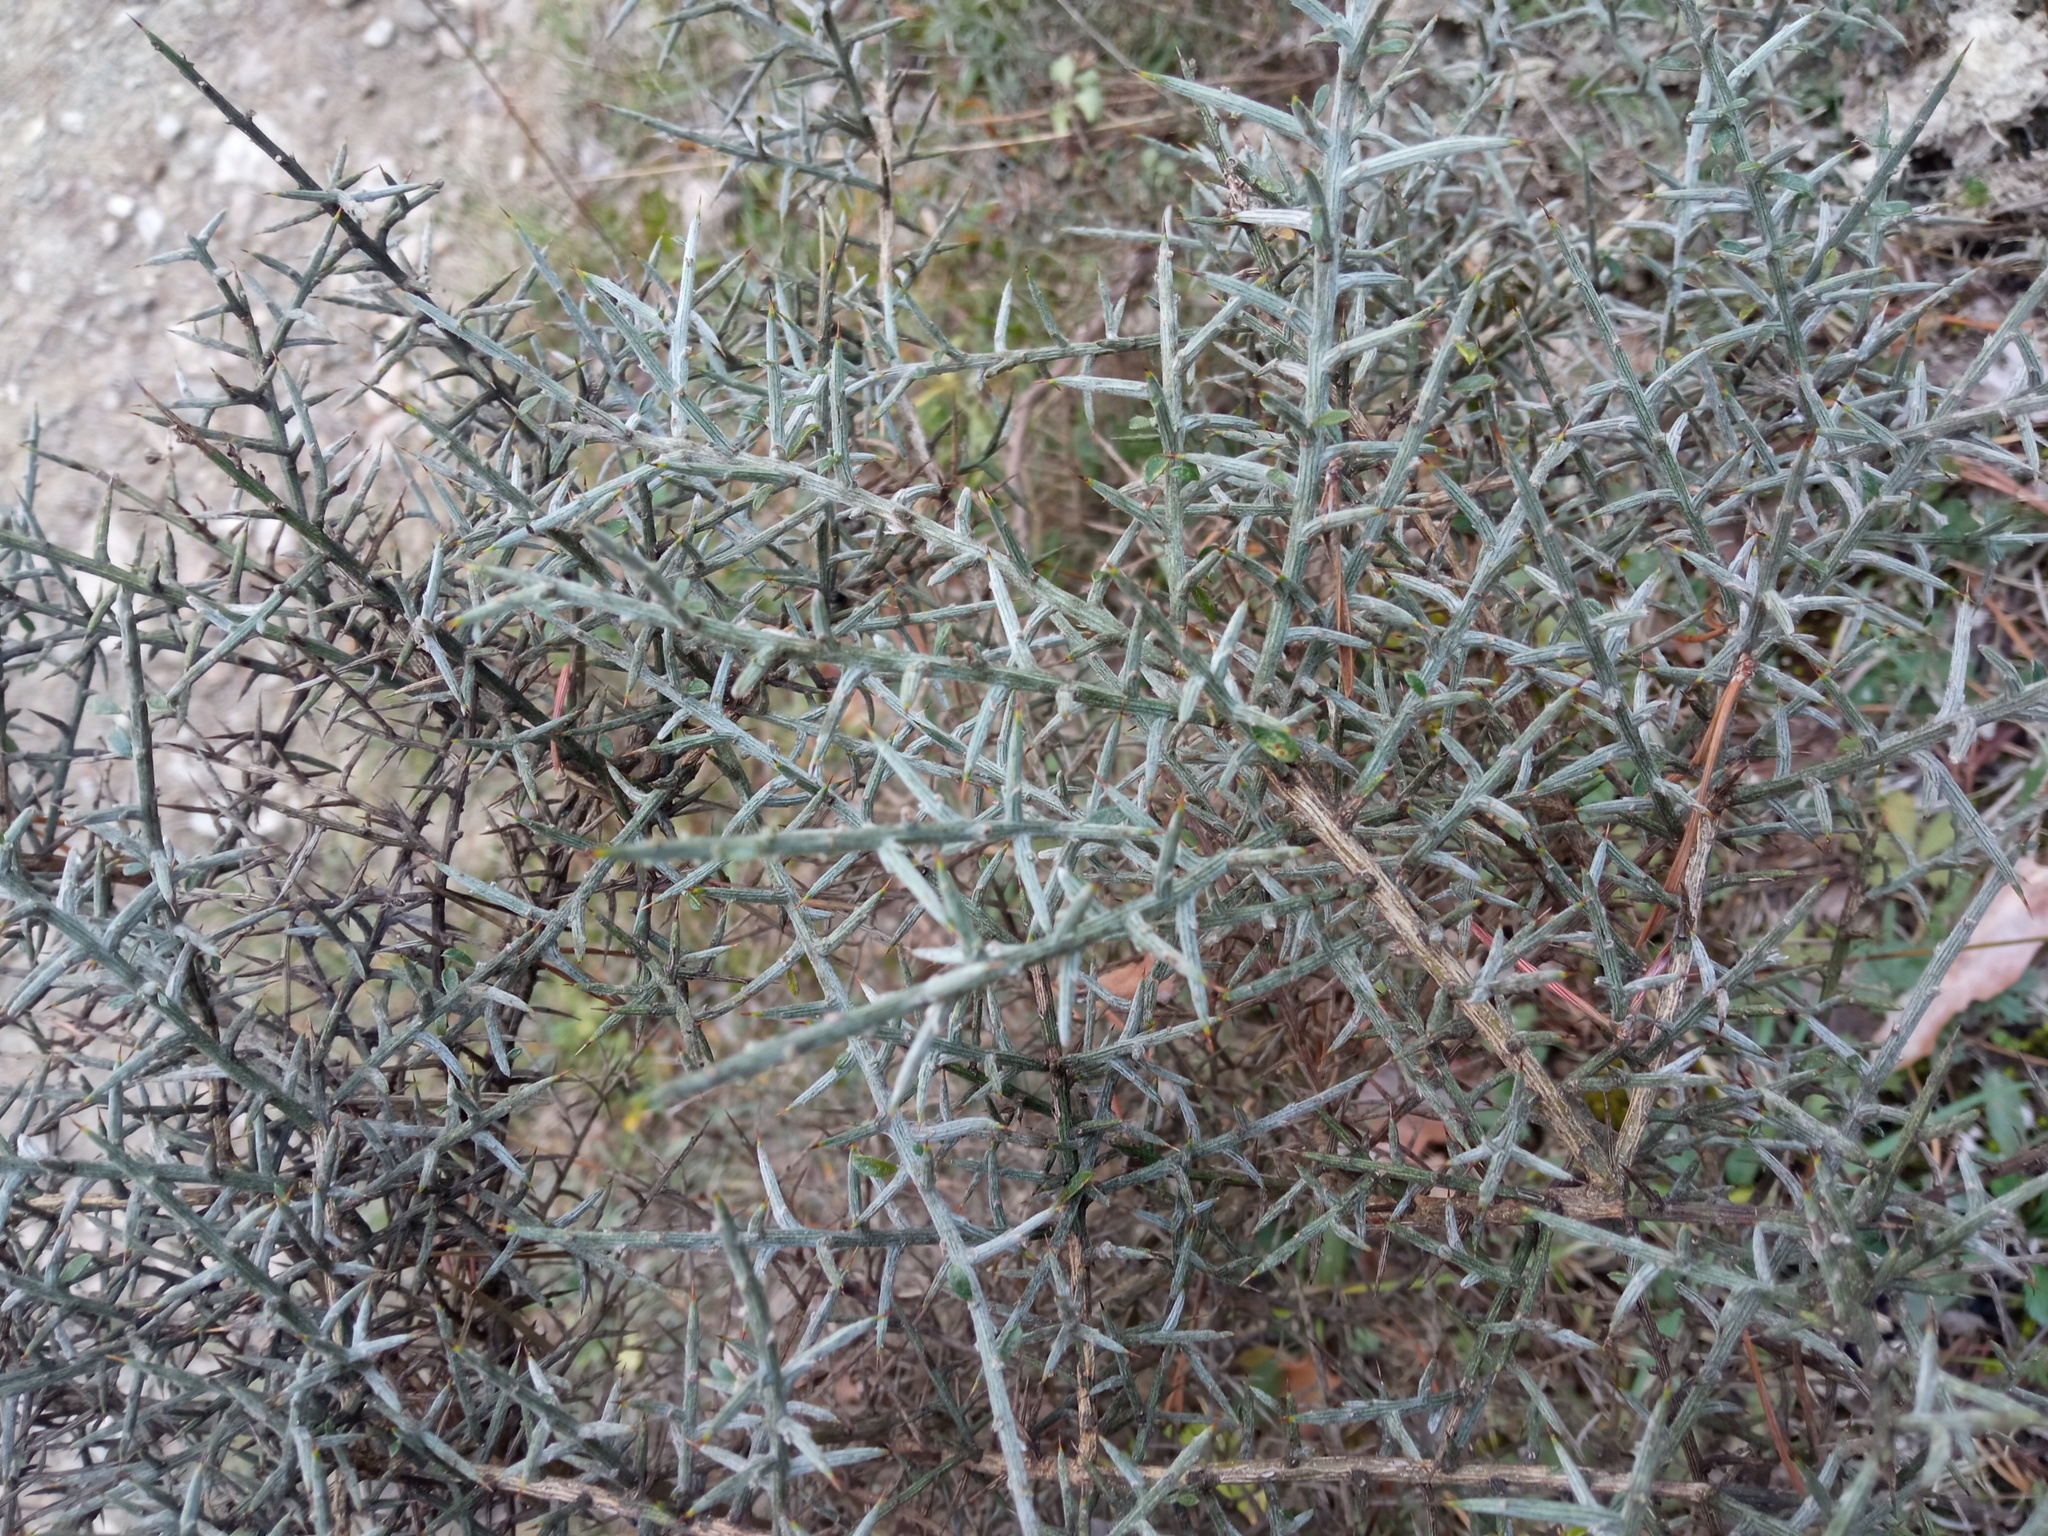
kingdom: Plantae
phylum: Tracheophyta
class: Magnoliopsida
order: Fabales
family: Fabaceae
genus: Genista
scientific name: Genista scorpius
